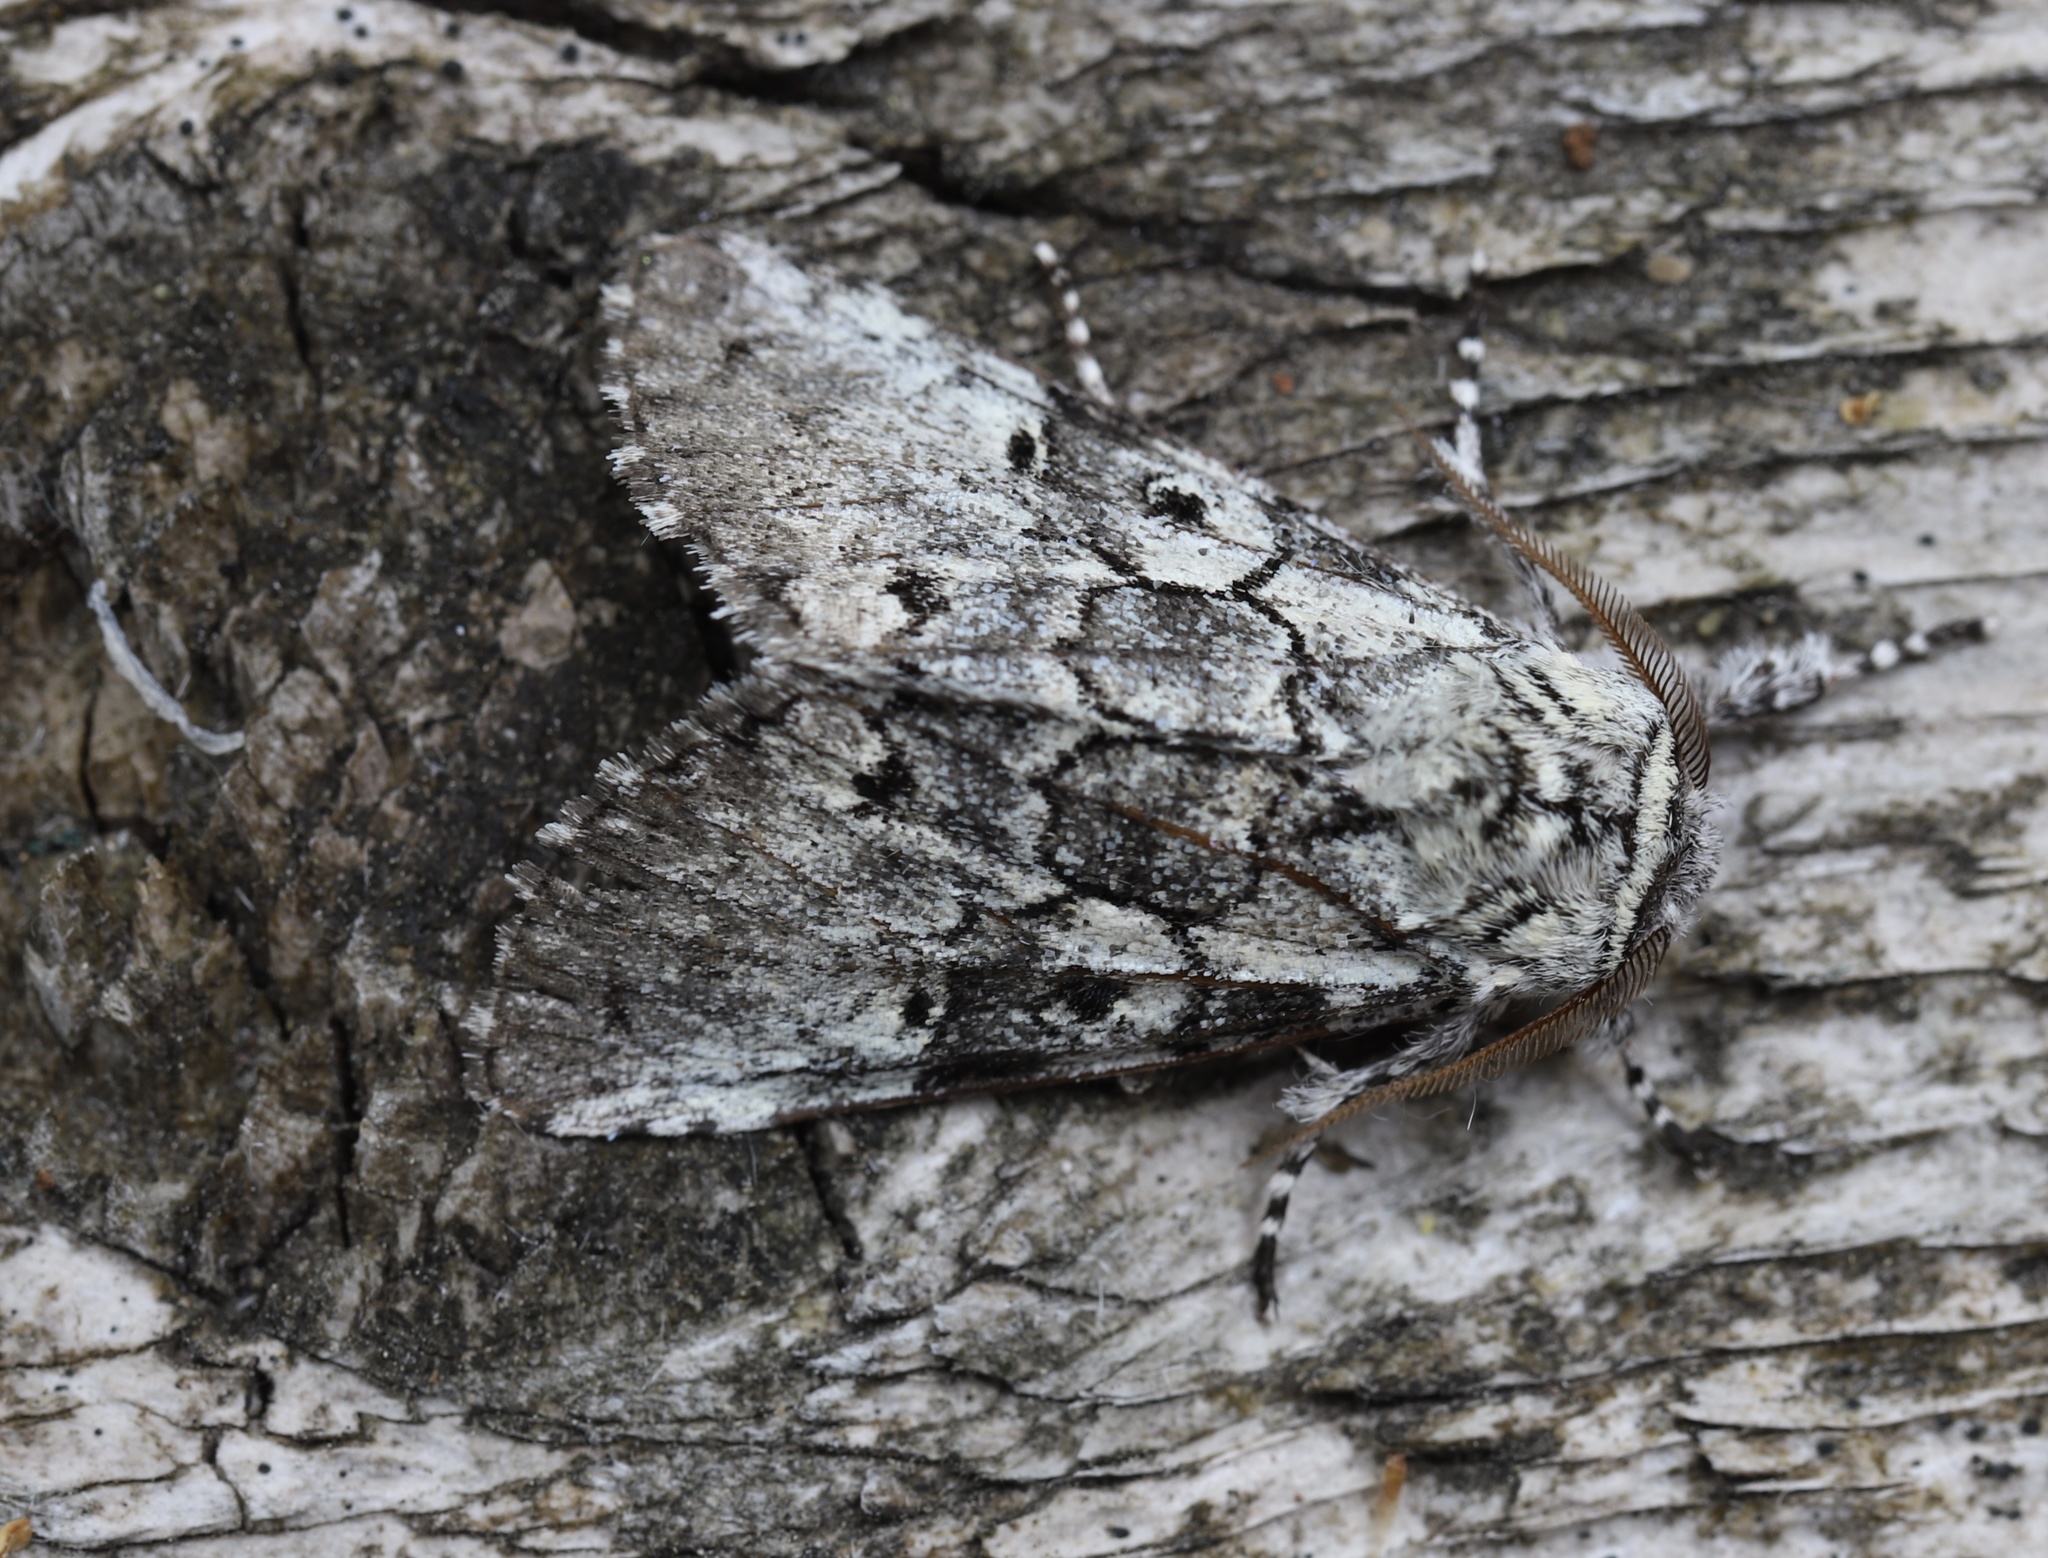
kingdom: Animalia
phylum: Arthropoda
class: Insecta
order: Lepidoptera
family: Noctuidae
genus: Charadra
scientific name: Charadra deridens
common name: Marbled tuffet
